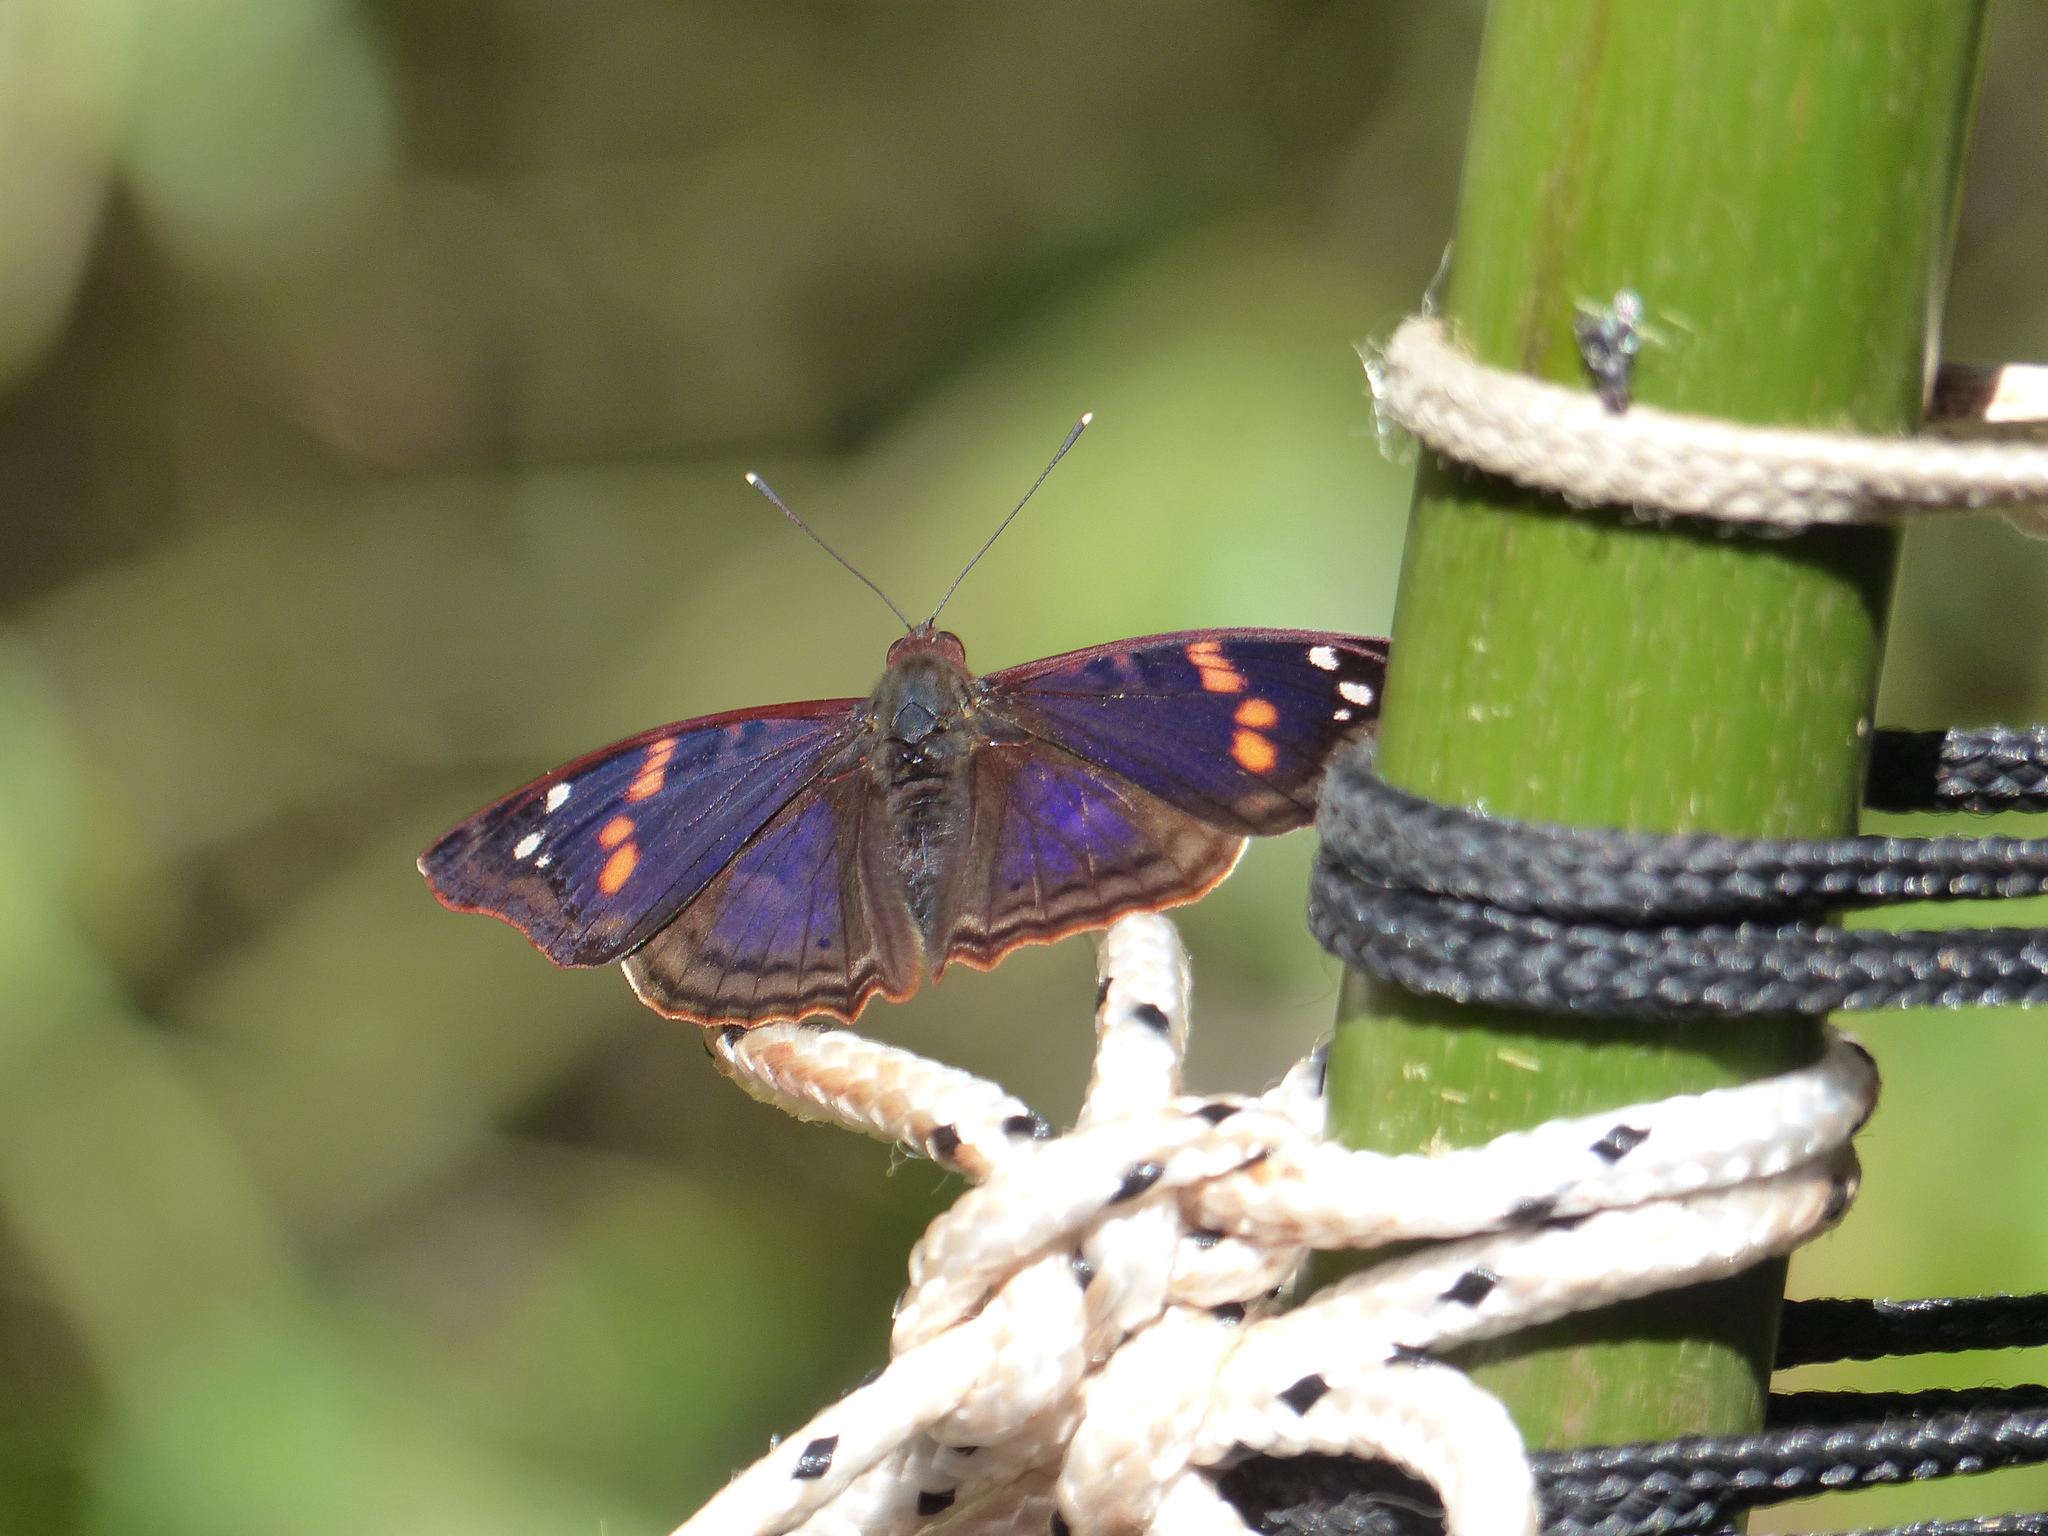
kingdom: Animalia
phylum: Arthropoda
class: Insecta
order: Lepidoptera
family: Nymphalidae
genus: Doxocopa
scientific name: Doxocopa agathina
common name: Agathina emperor
